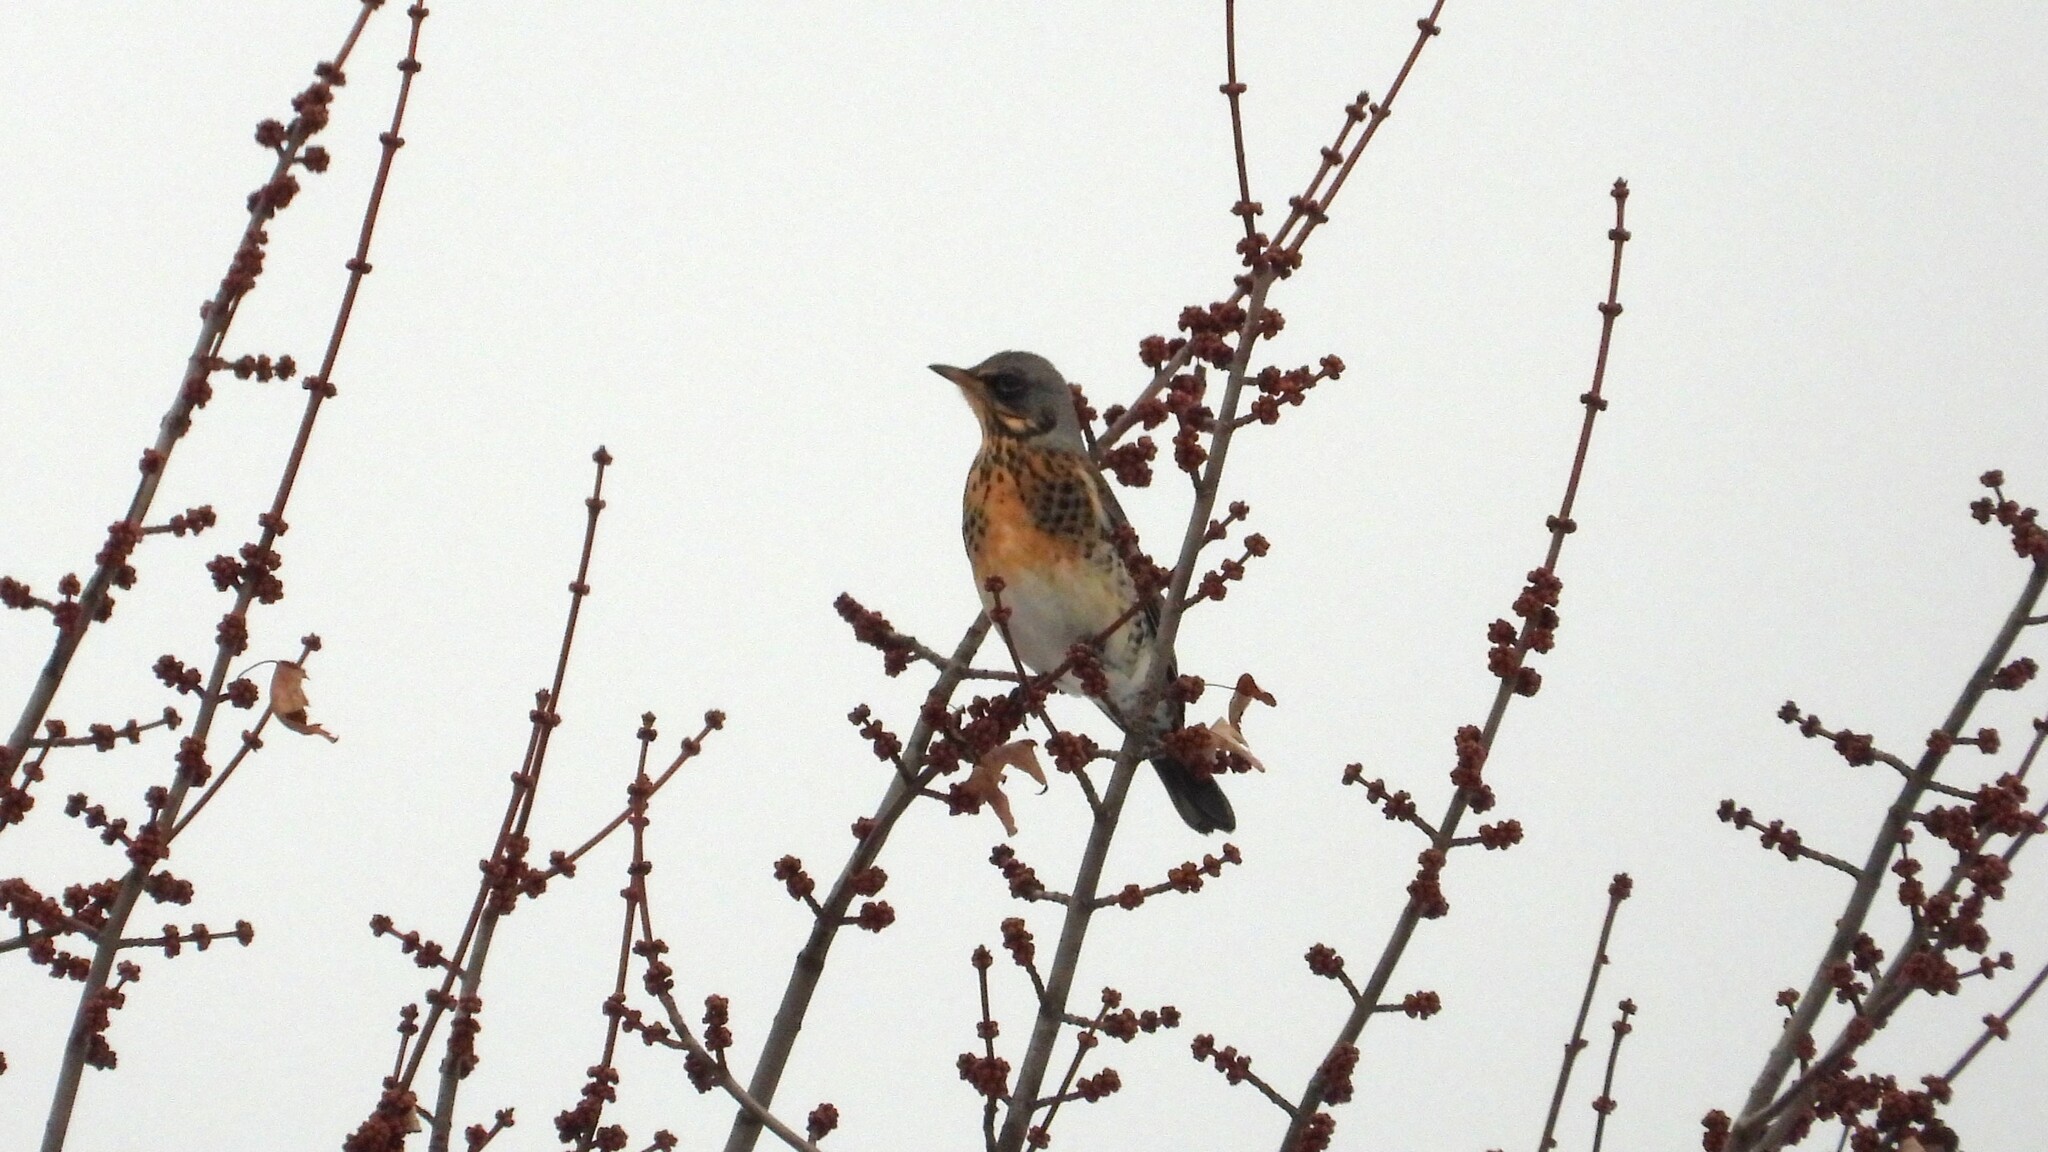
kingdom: Animalia
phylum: Chordata
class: Aves
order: Passeriformes
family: Turdidae
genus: Turdus
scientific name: Turdus pilaris
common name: Fieldfare
